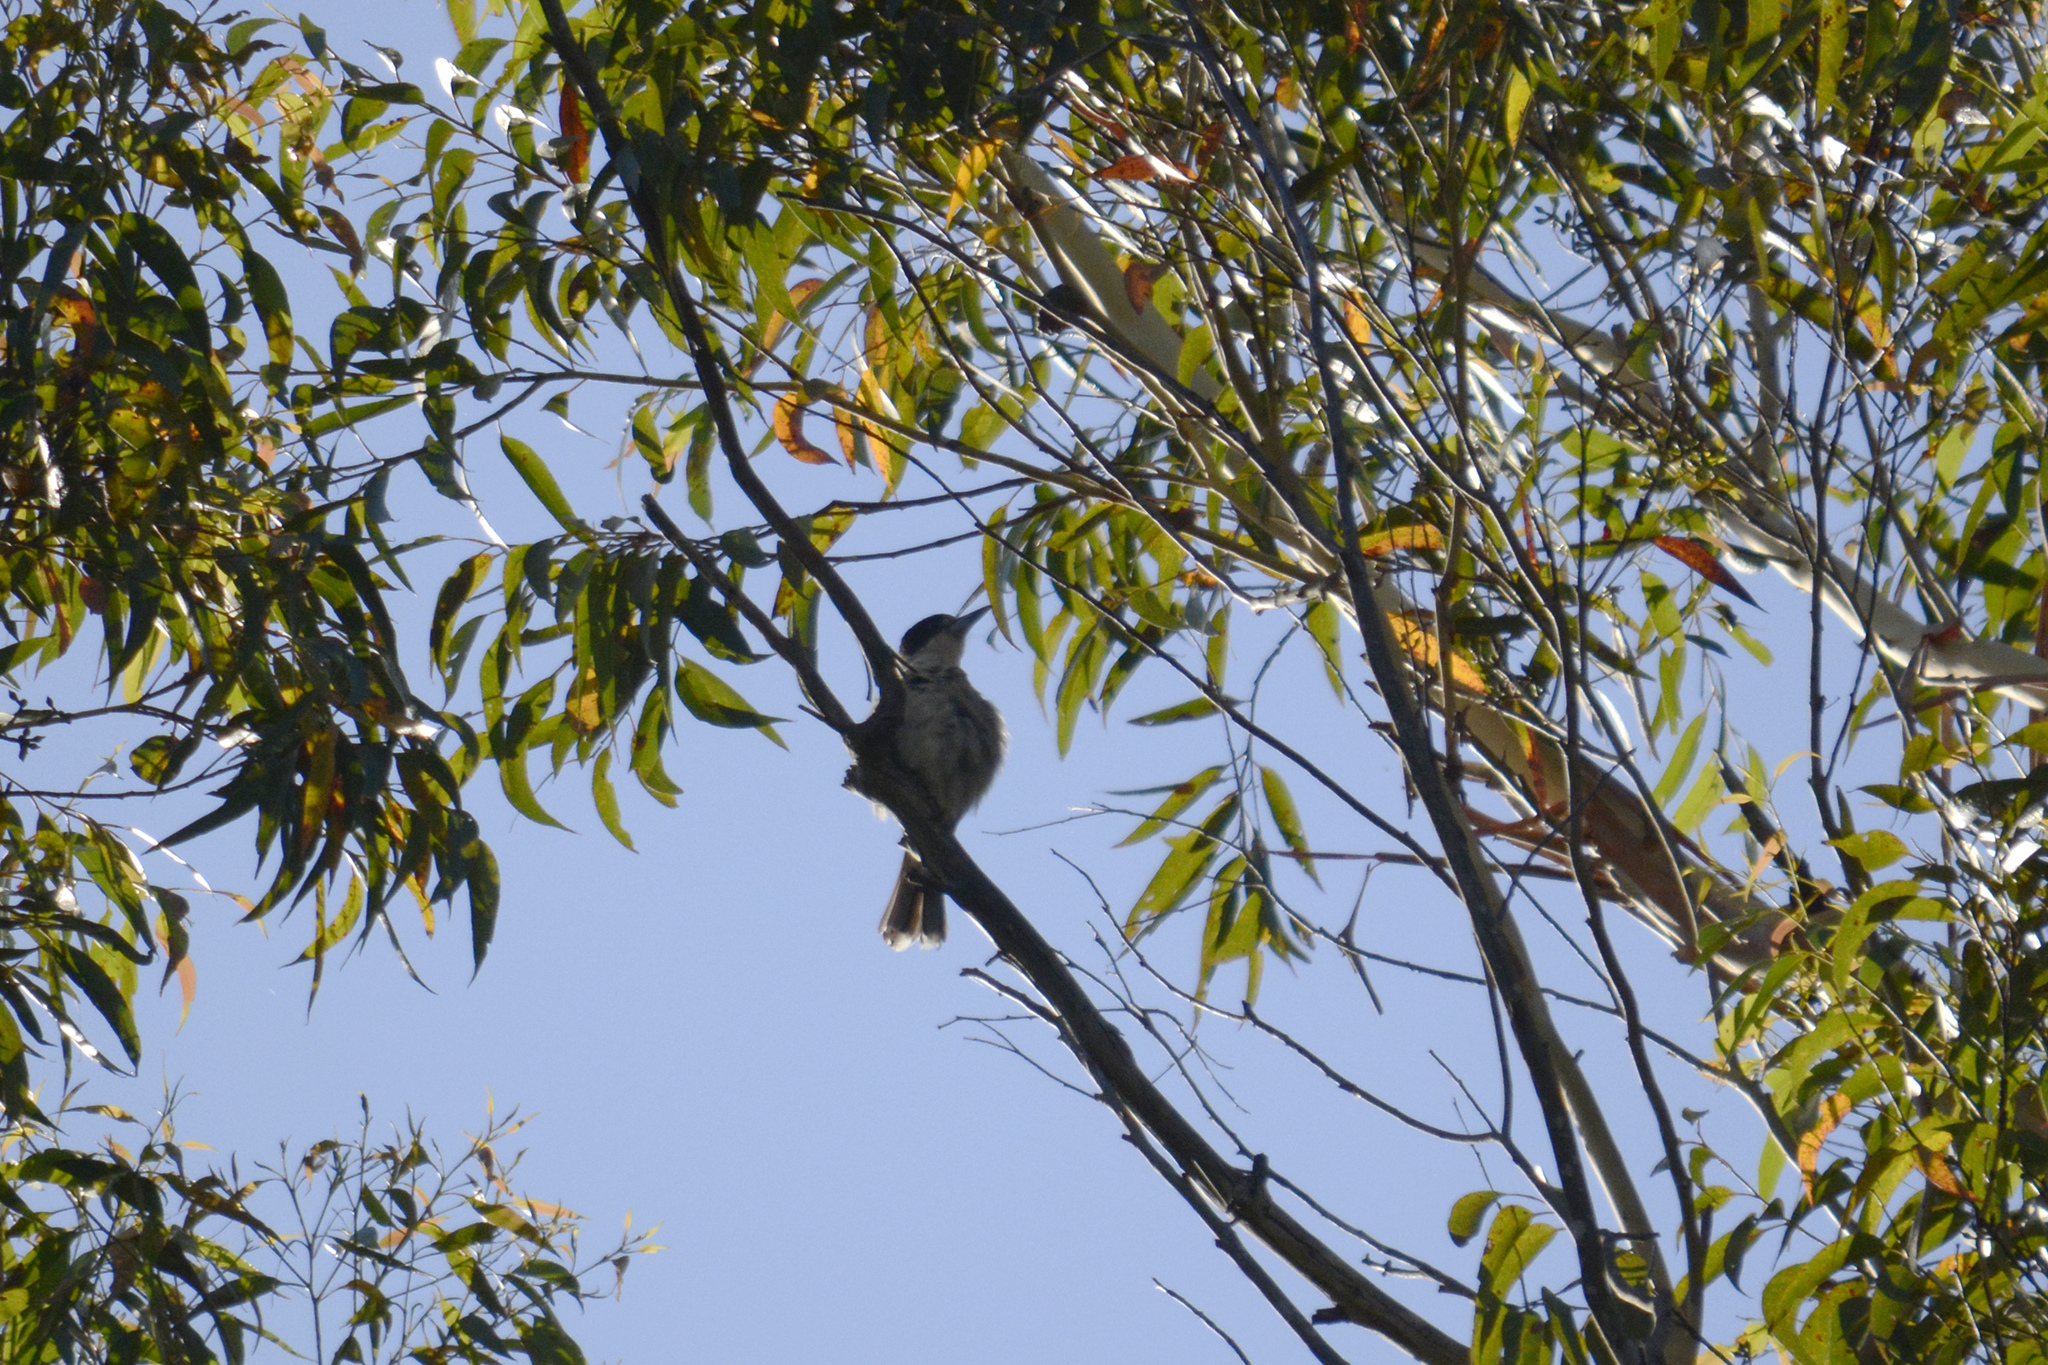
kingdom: Animalia
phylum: Chordata
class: Aves
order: Passeriformes
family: Cracticidae
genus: Cracticus
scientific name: Cracticus torquatus
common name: Grey butcherbird
